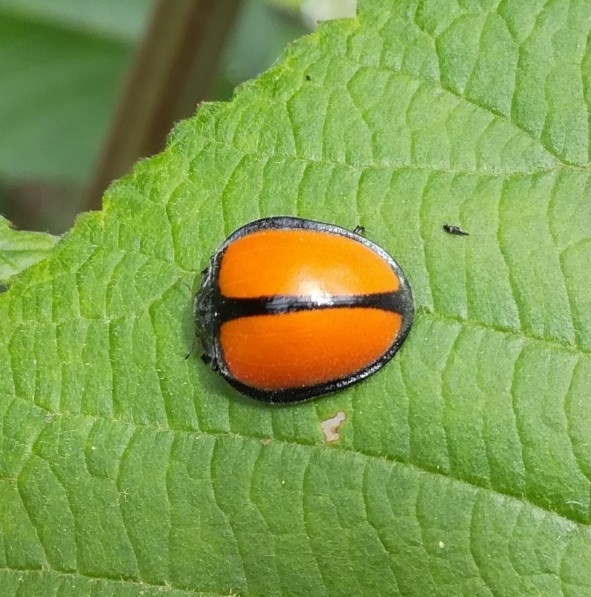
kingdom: Animalia
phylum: Arthropoda
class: Insecta
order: Coleoptera
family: Coccinellidae
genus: Epilachna
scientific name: Epilachna
